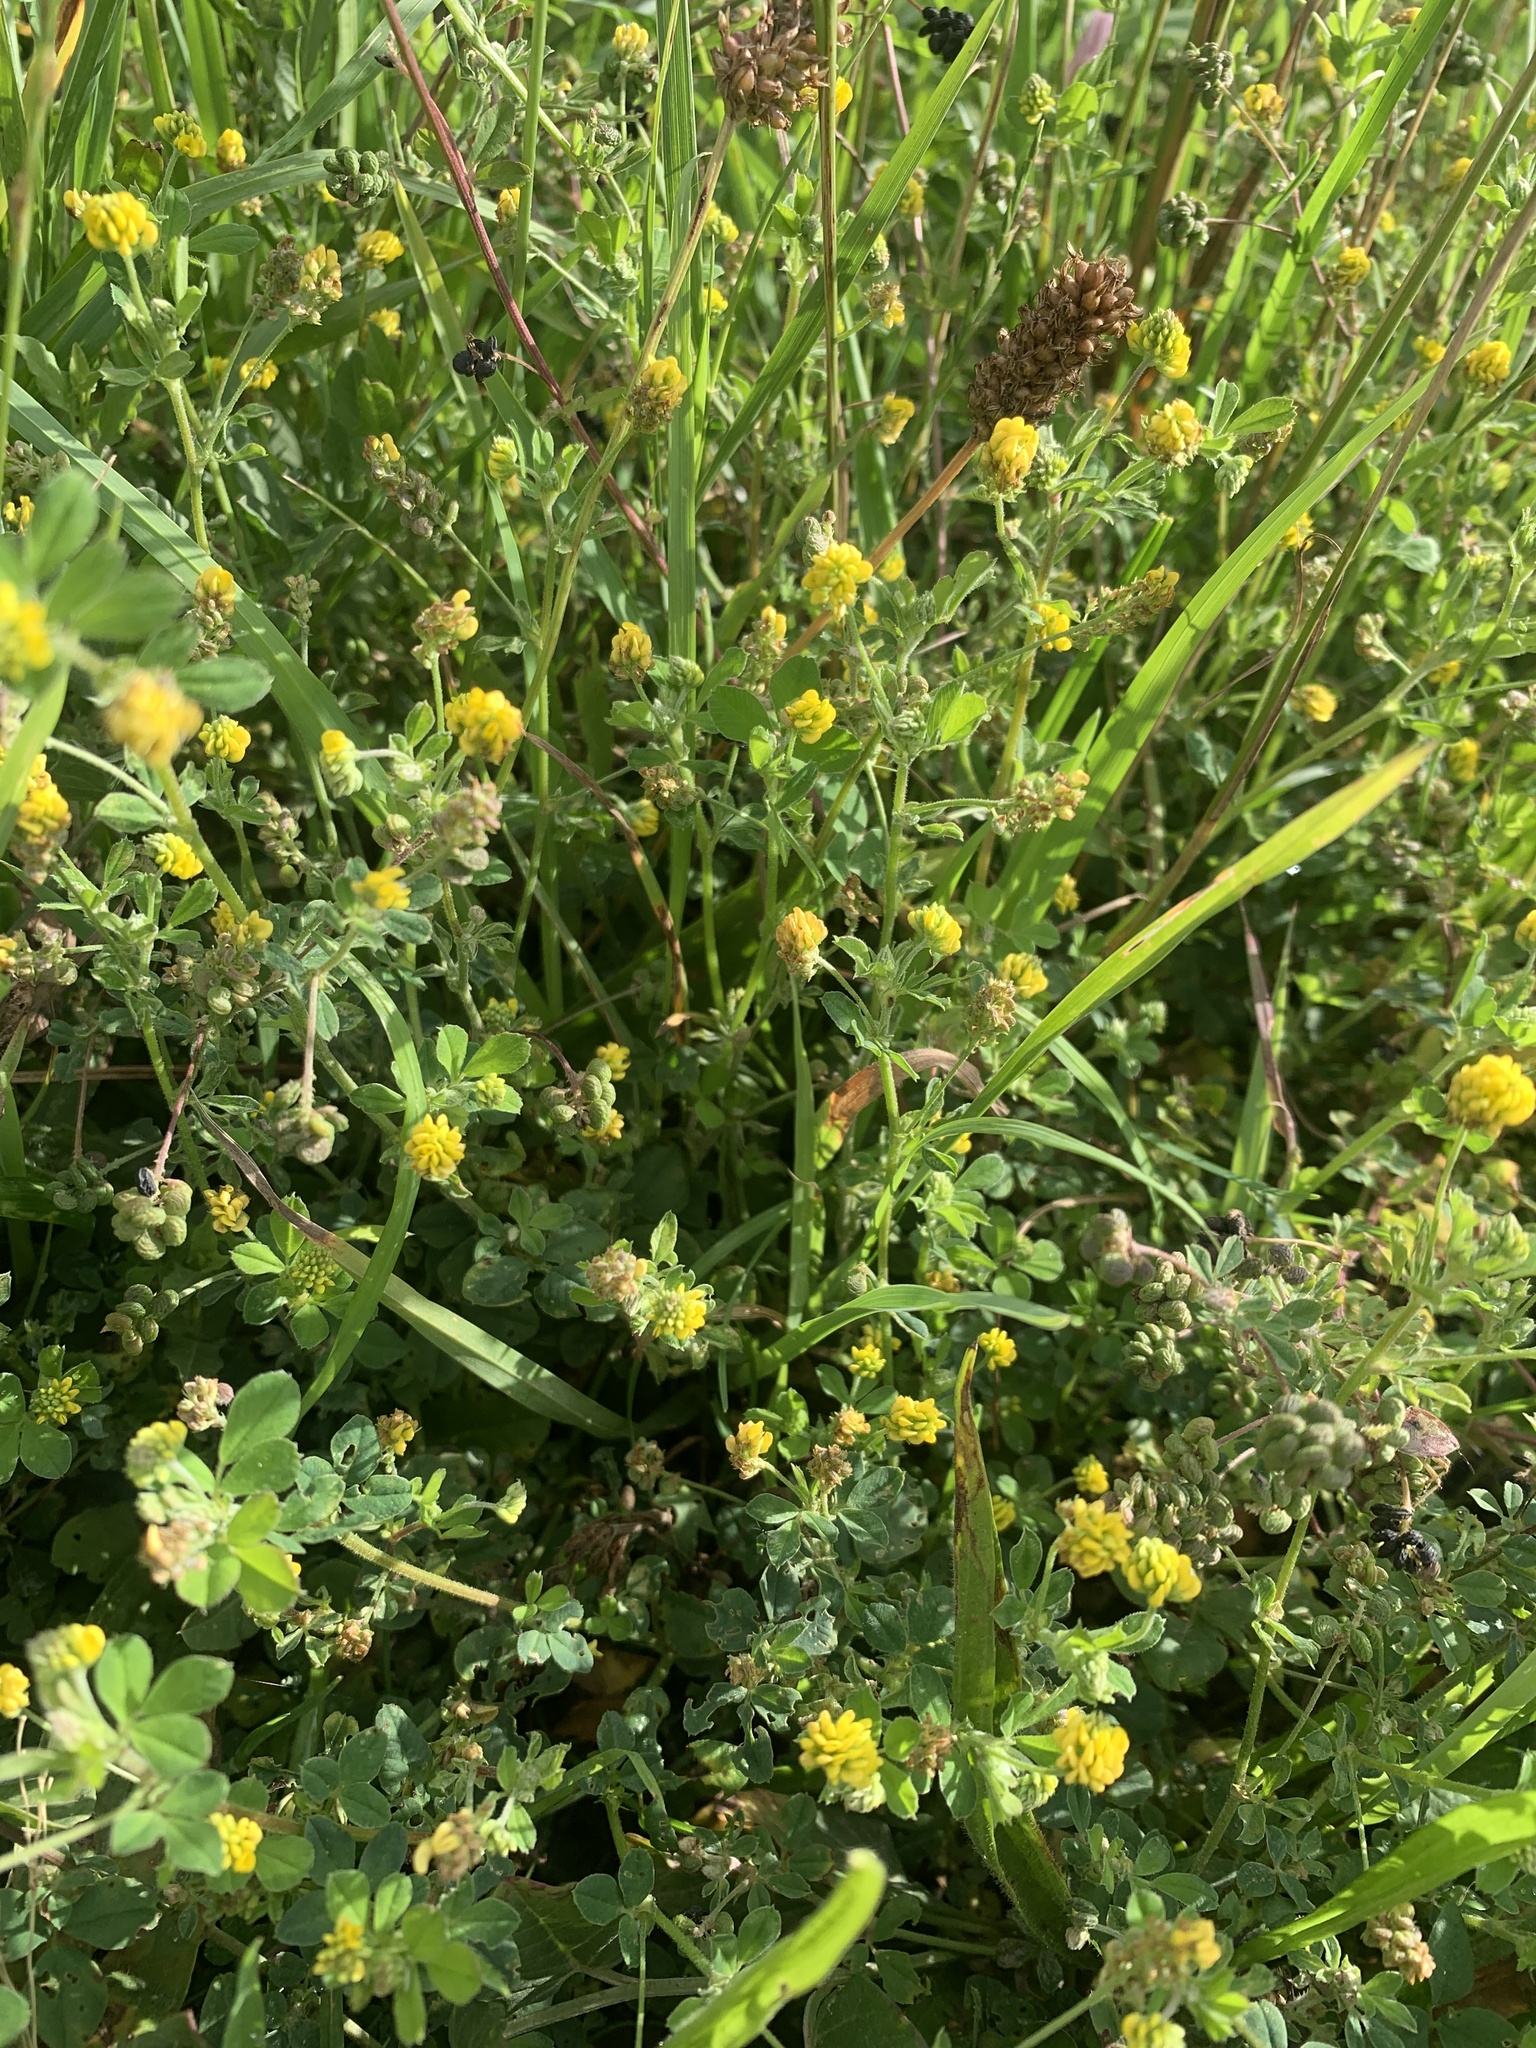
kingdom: Plantae
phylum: Tracheophyta
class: Magnoliopsida
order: Fabales
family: Fabaceae
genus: Medicago
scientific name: Medicago lupulina
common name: Black medick
